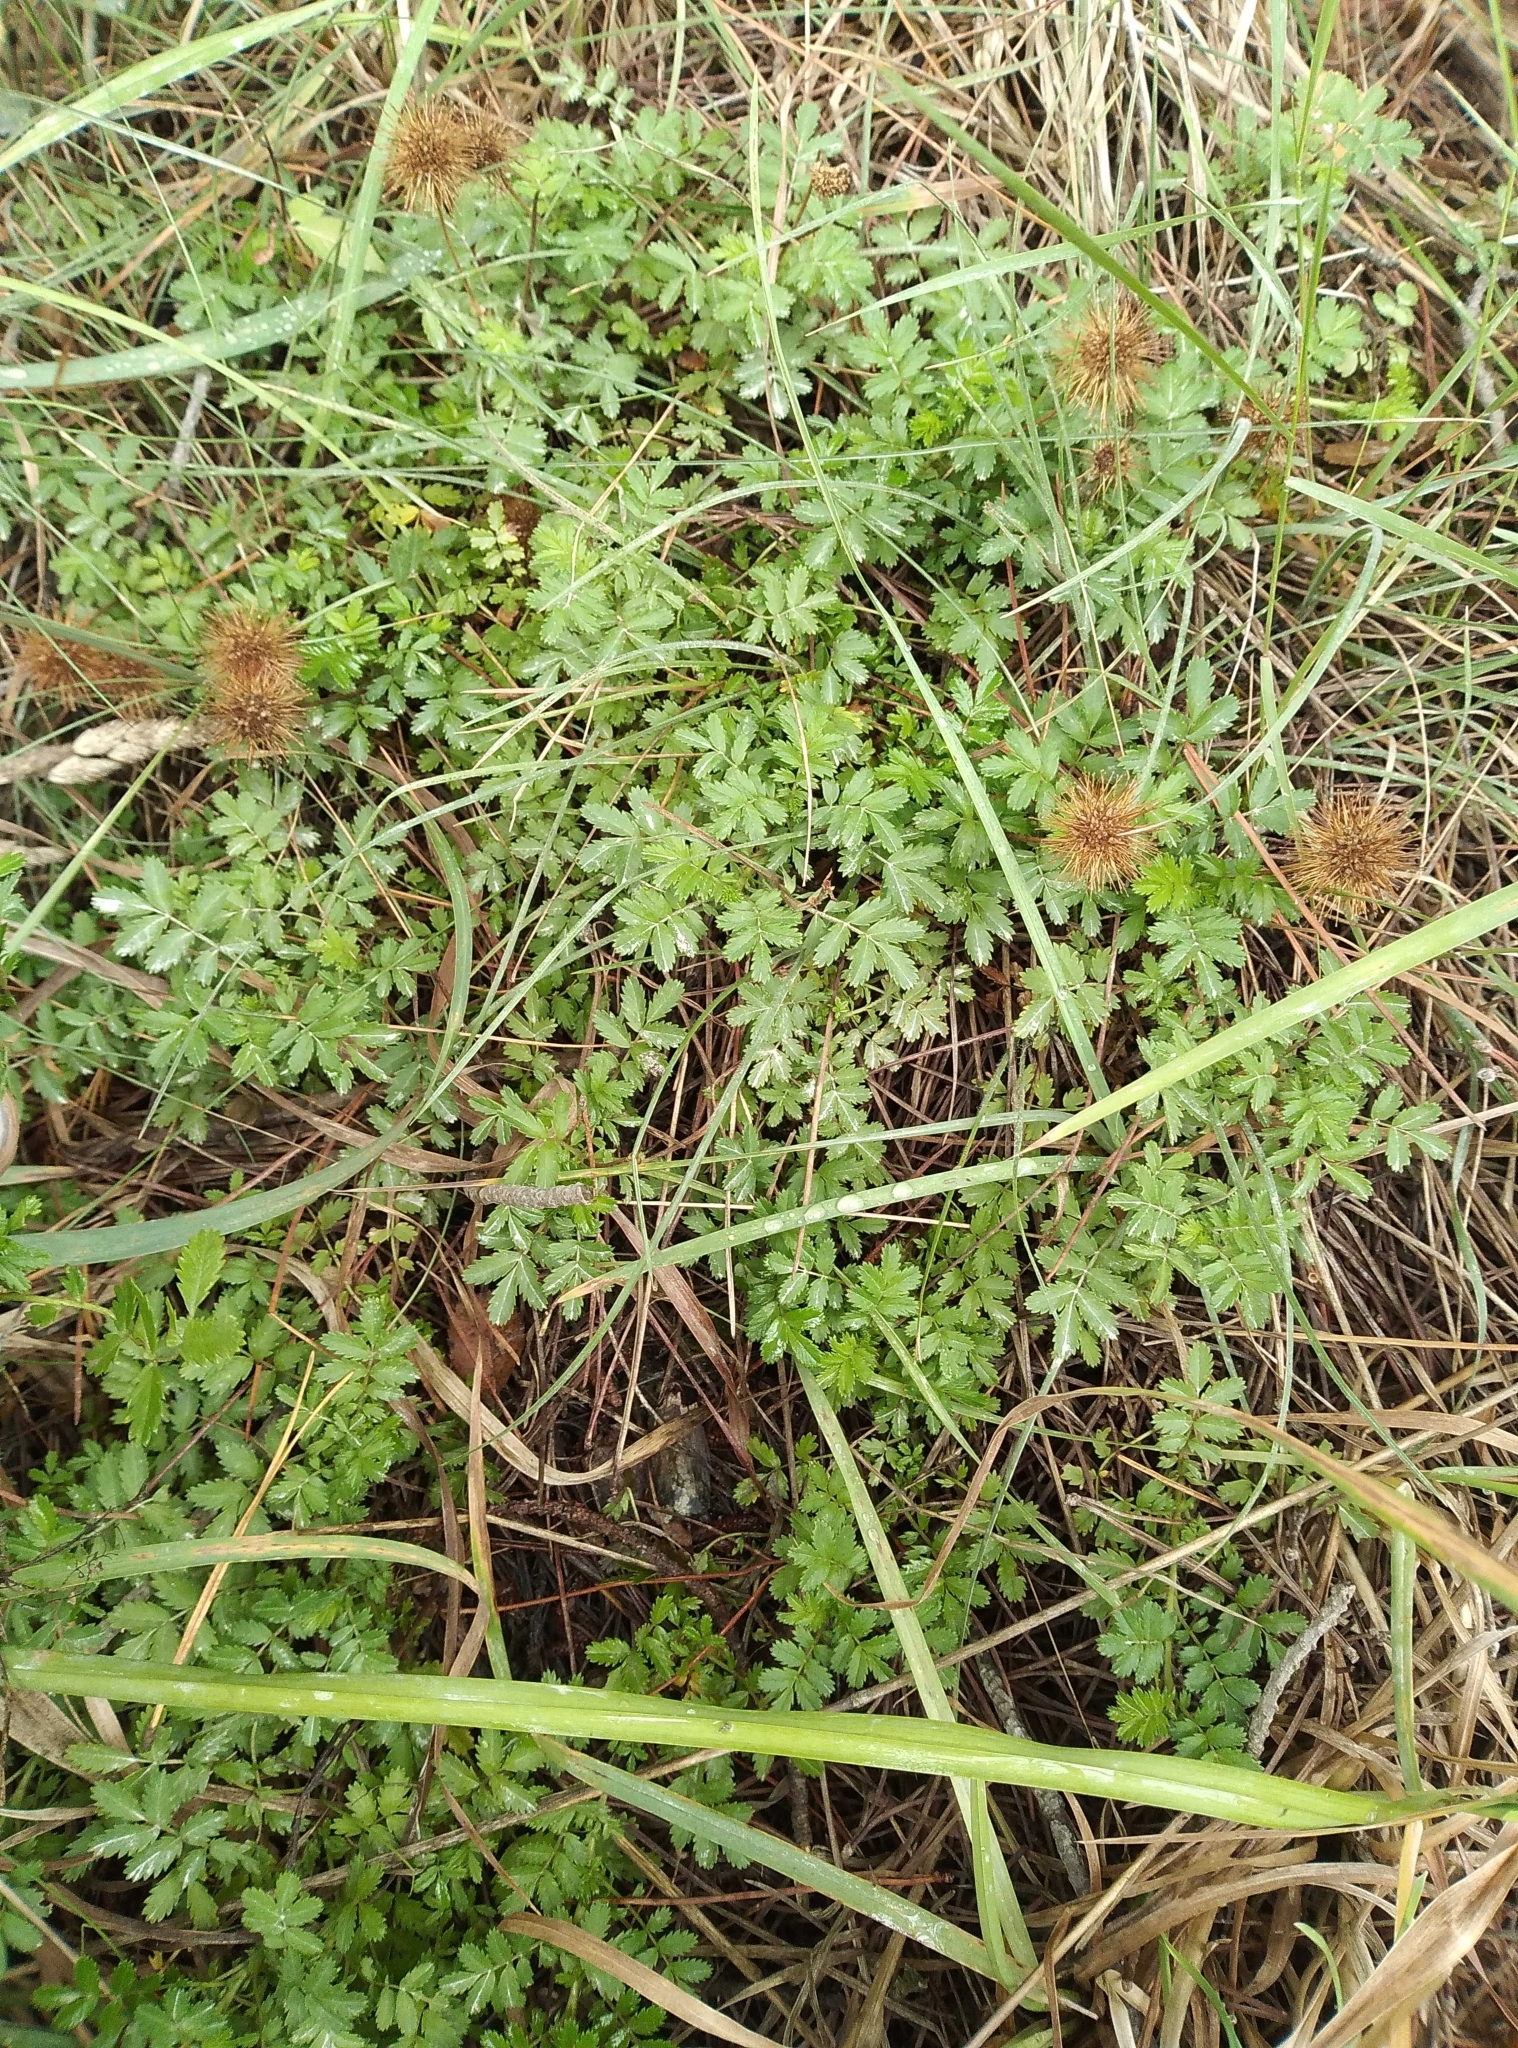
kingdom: Plantae
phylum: Tracheophyta
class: Magnoliopsida
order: Rosales
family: Rosaceae
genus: Acaena
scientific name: Acaena novae-zelandiae
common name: Pirri-pirri-bur
